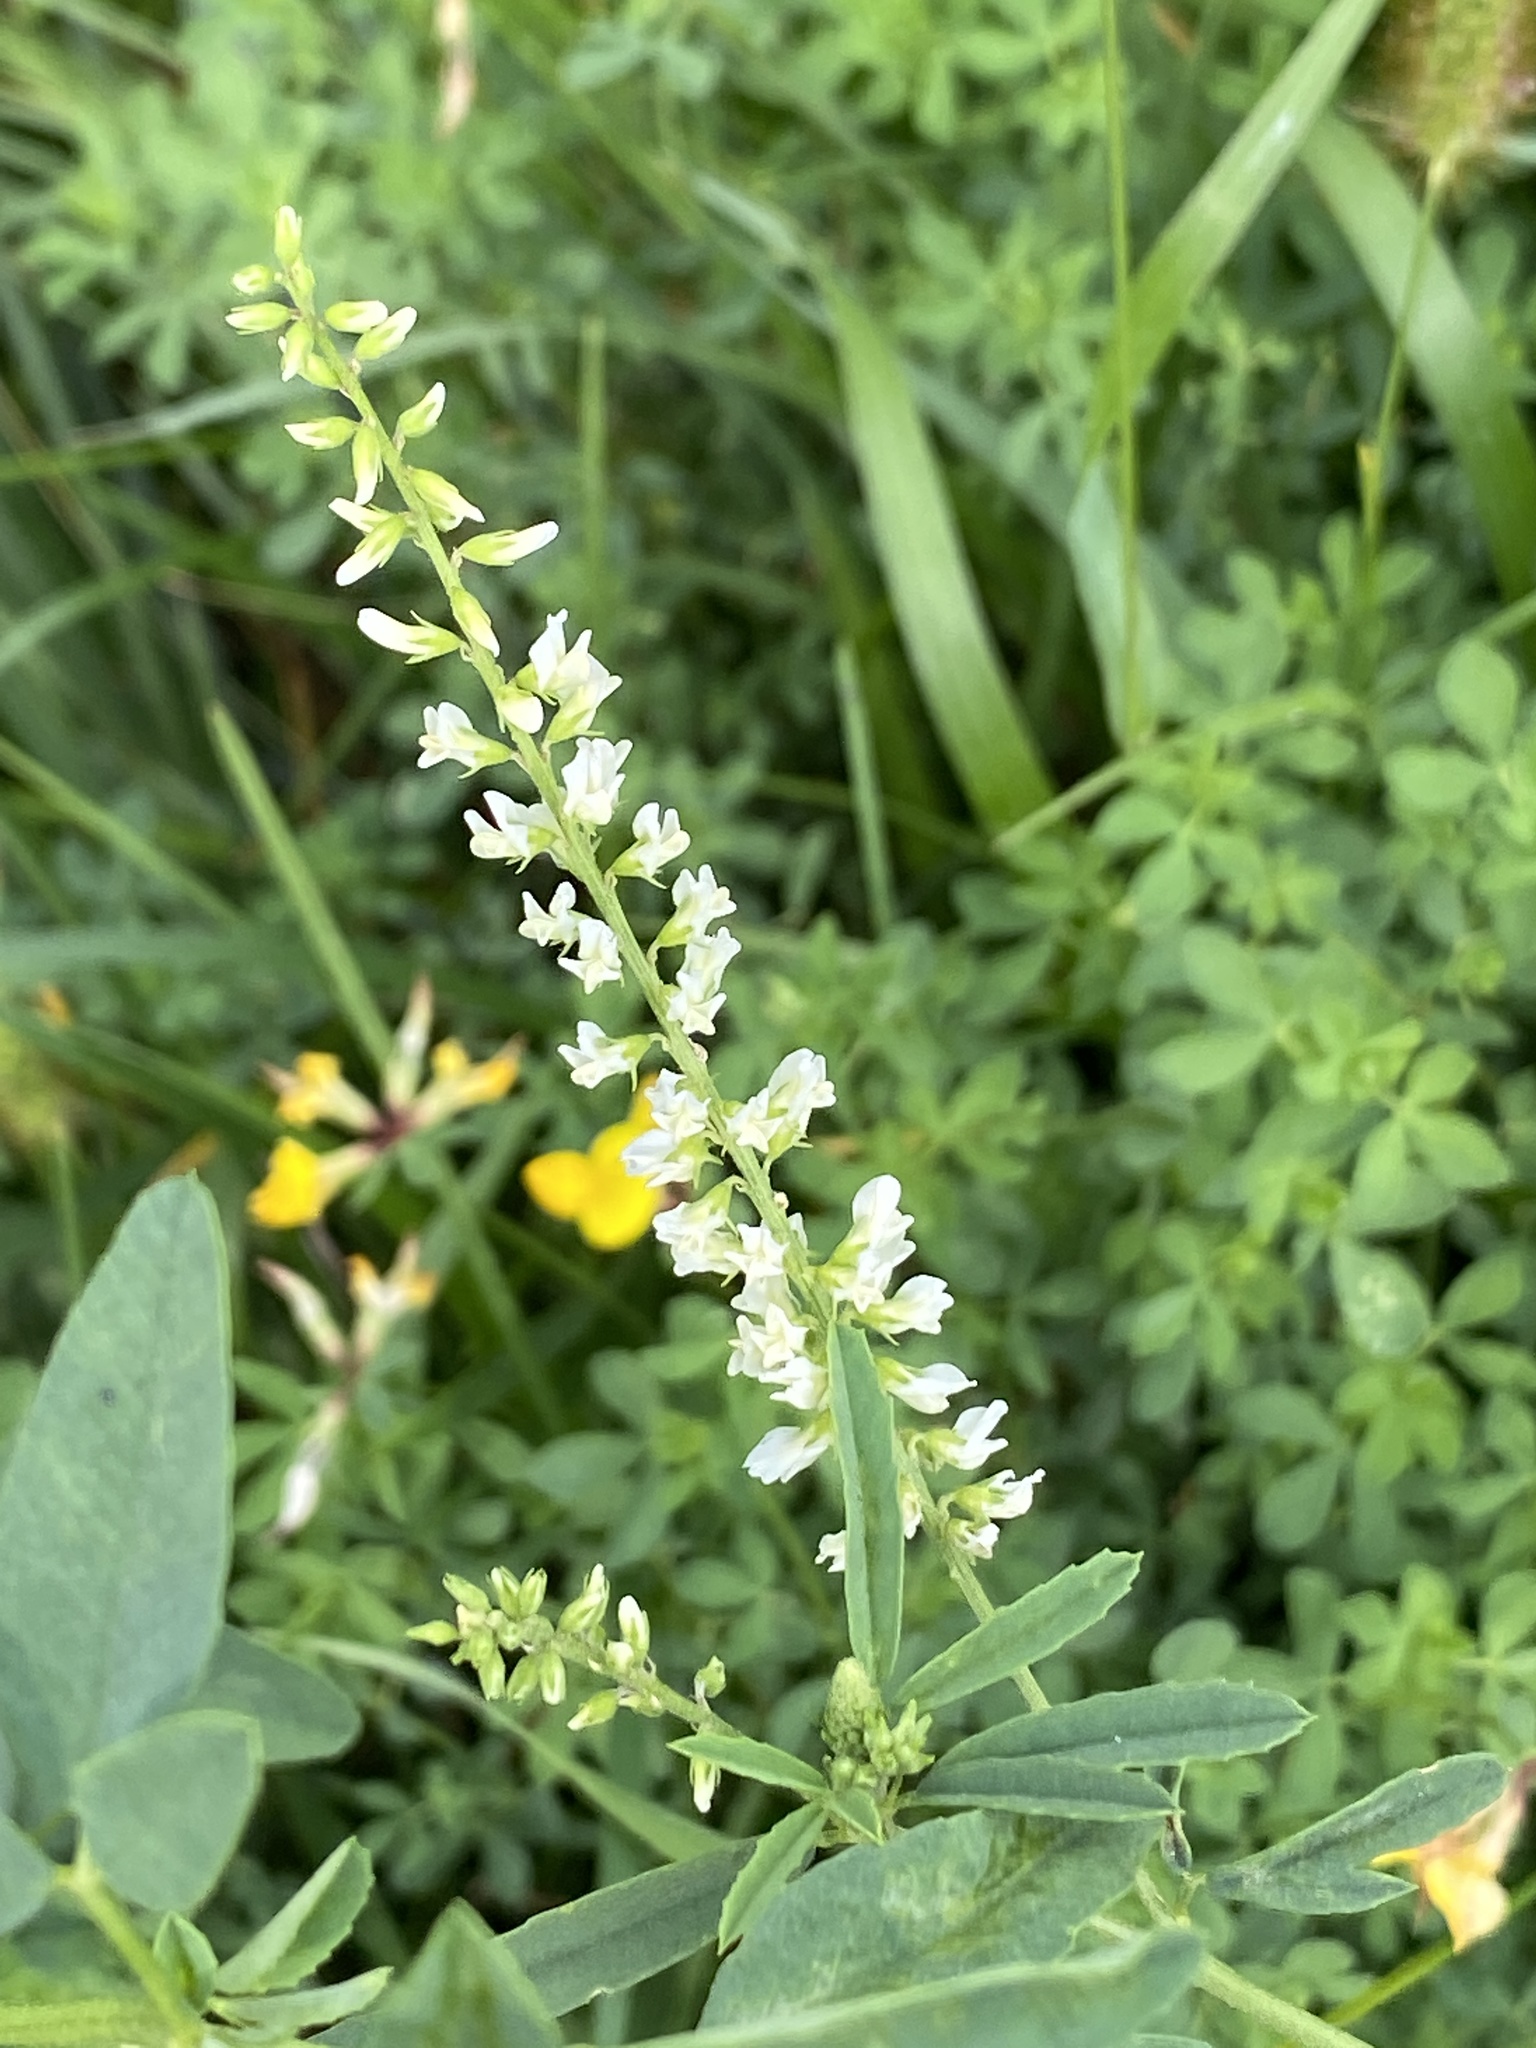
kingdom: Plantae
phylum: Tracheophyta
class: Magnoliopsida
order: Fabales
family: Fabaceae
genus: Melilotus
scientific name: Melilotus albus
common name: White melilot
